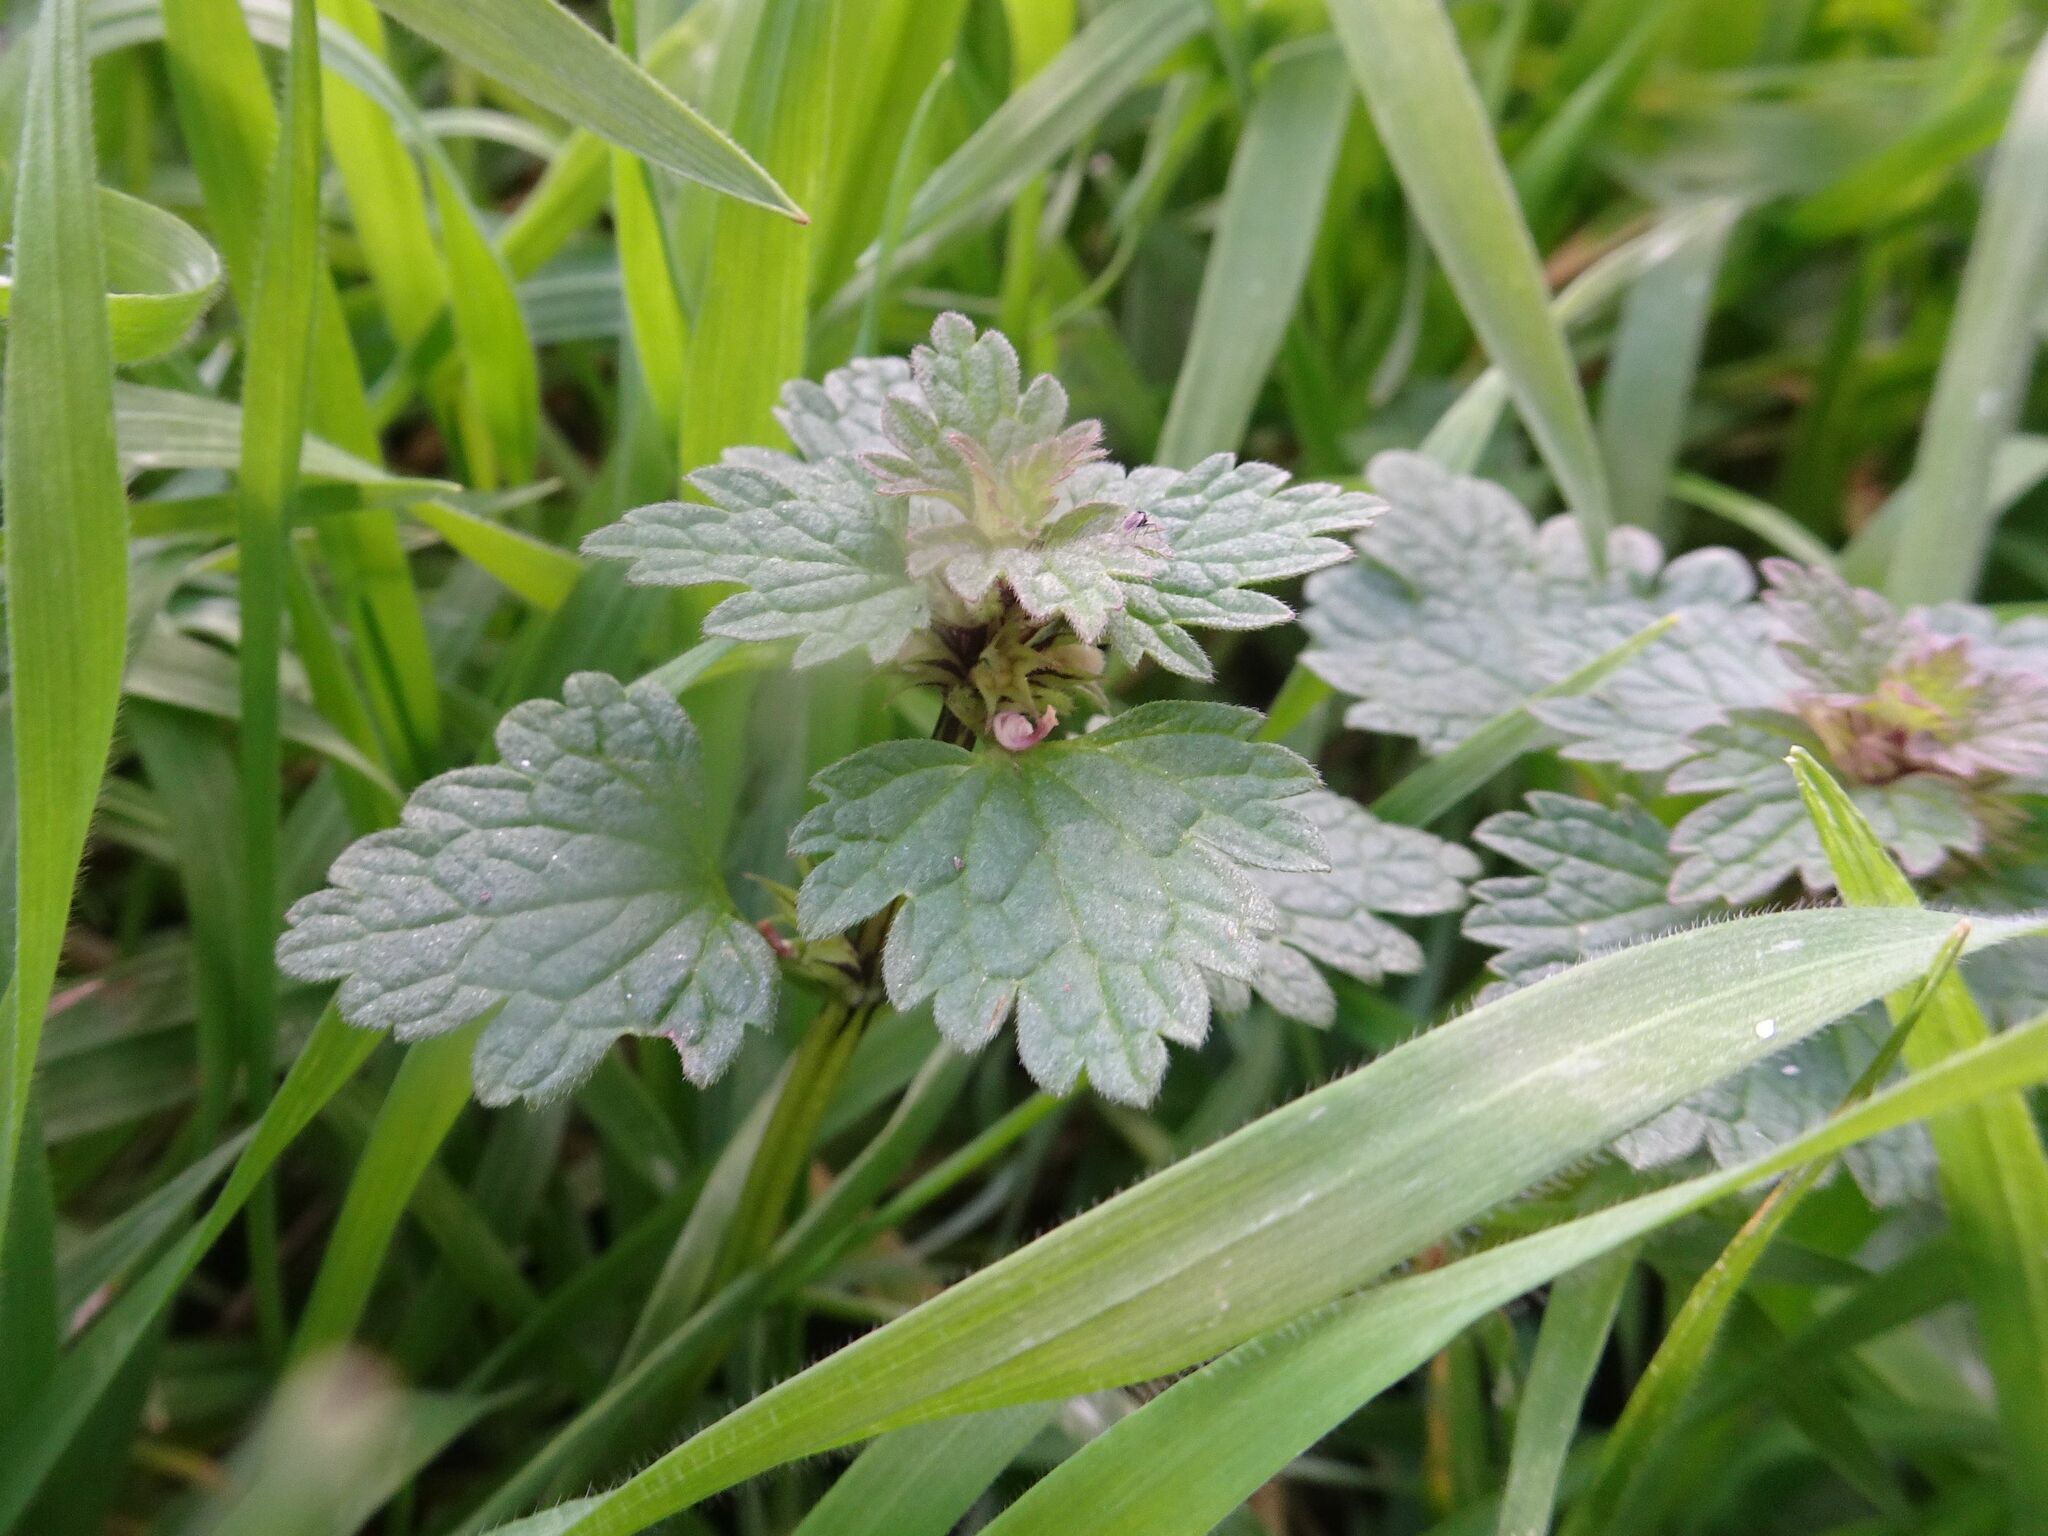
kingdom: Plantae
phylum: Tracheophyta
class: Magnoliopsida
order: Lamiales
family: Lamiaceae
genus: Lamium
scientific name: Lamium hybridum
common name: Cut-leaved dead-nettle
